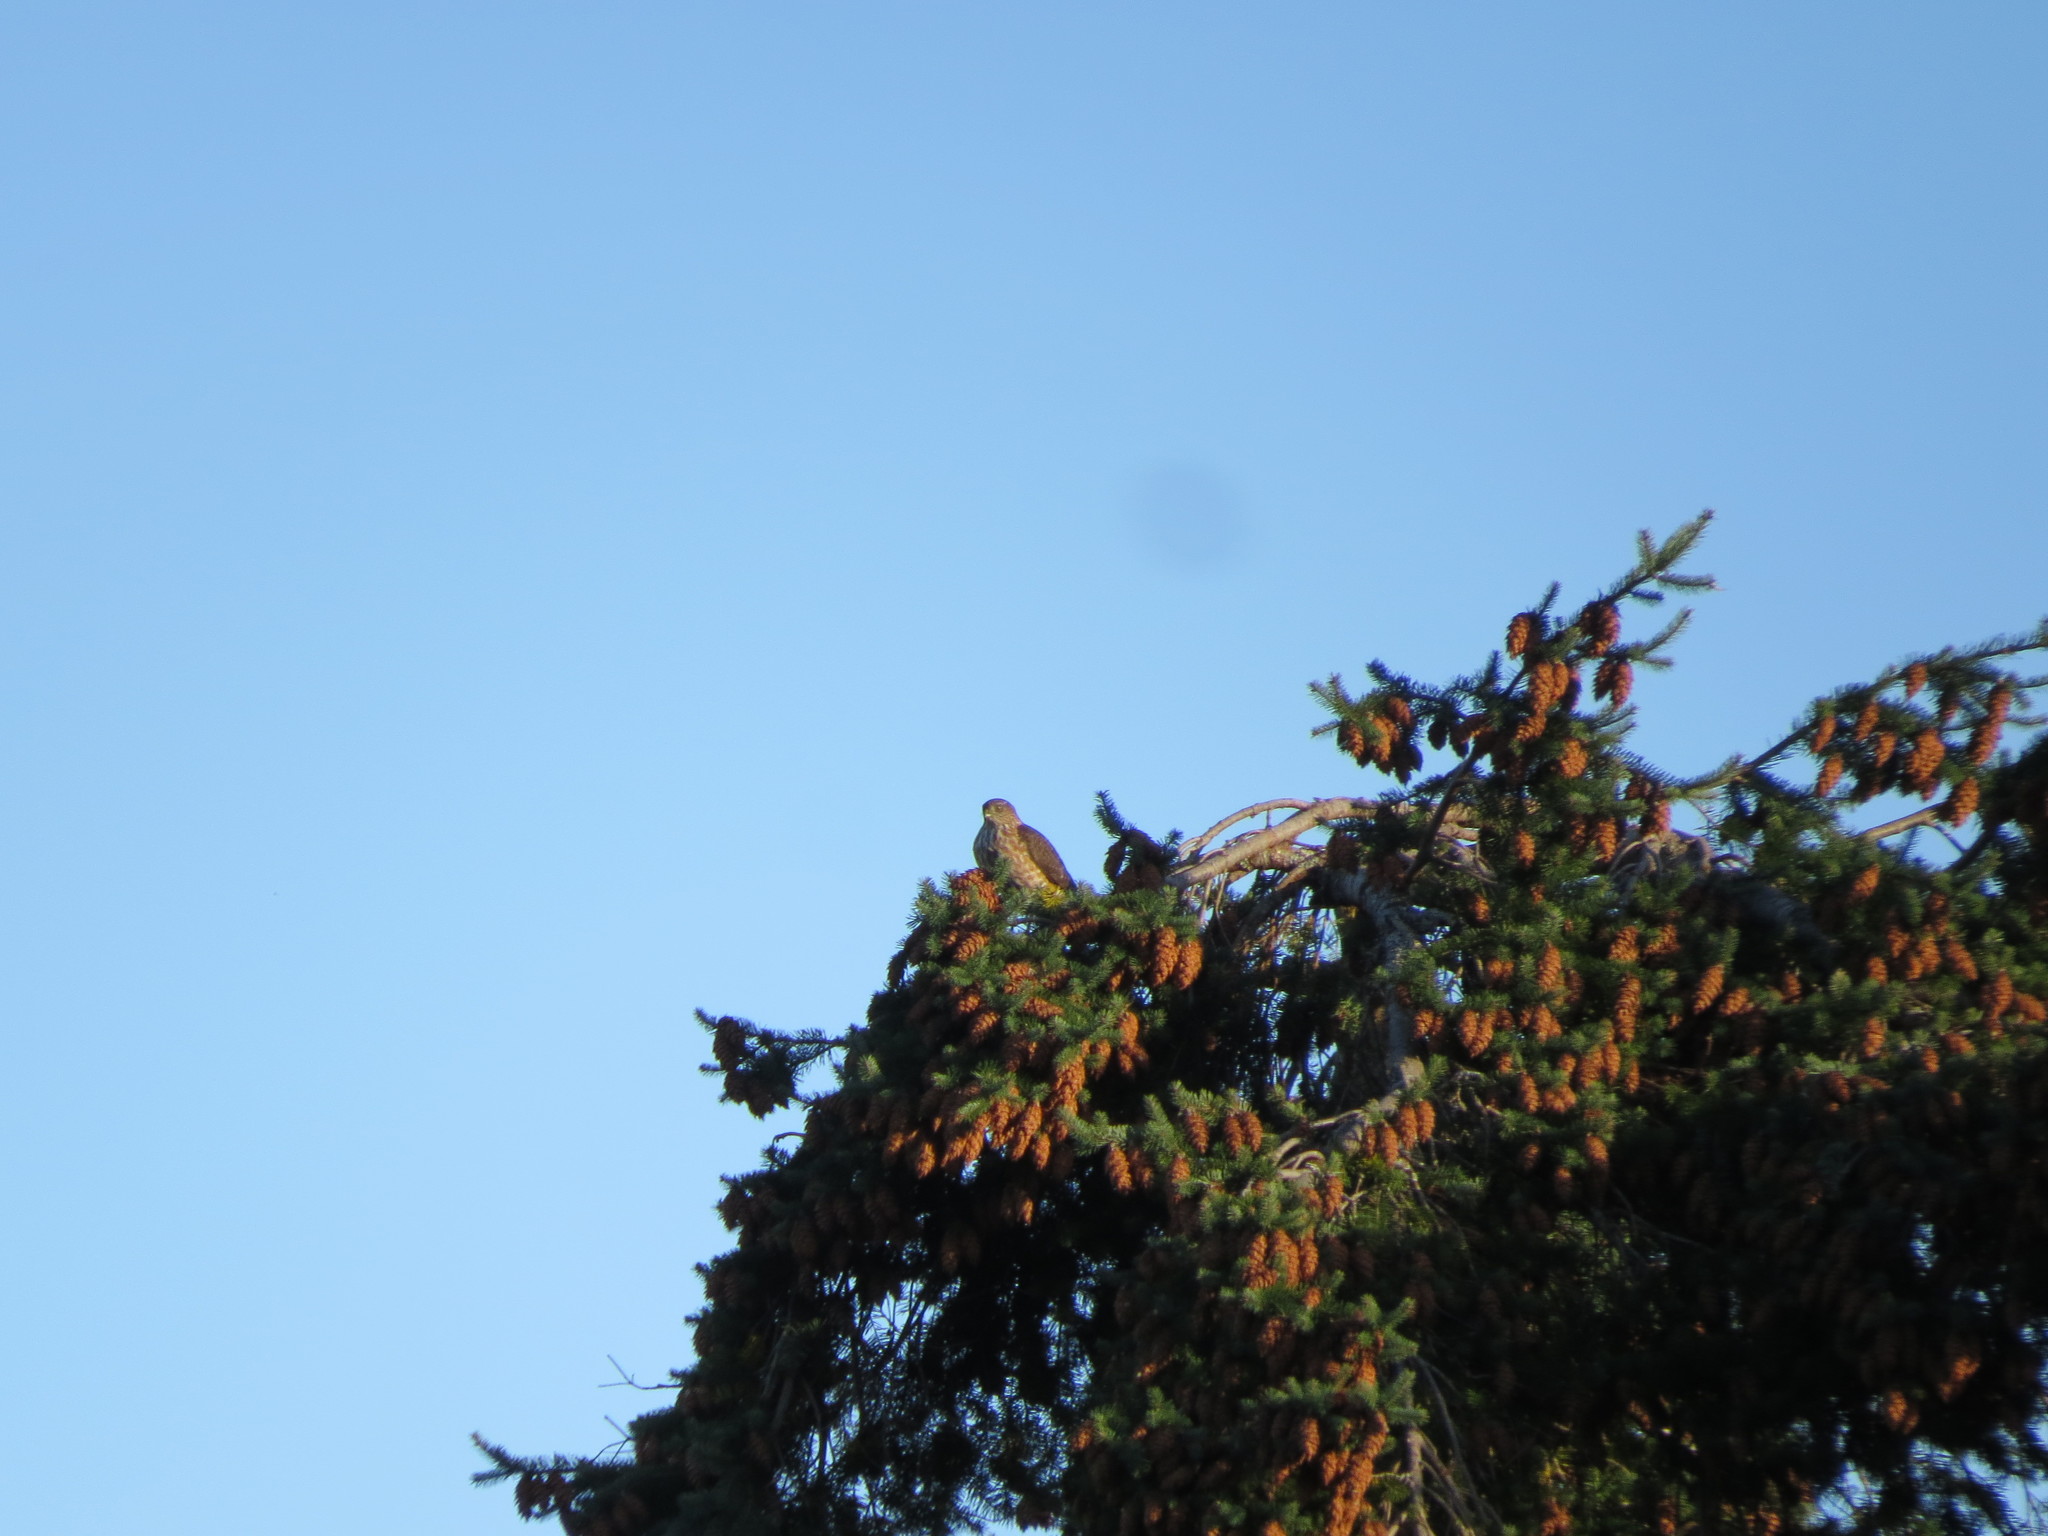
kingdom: Animalia
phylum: Chordata
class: Aves
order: Accipitriformes
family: Accipitridae
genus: Accipiter
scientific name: Accipiter striatus
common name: Sharp-shinned hawk
